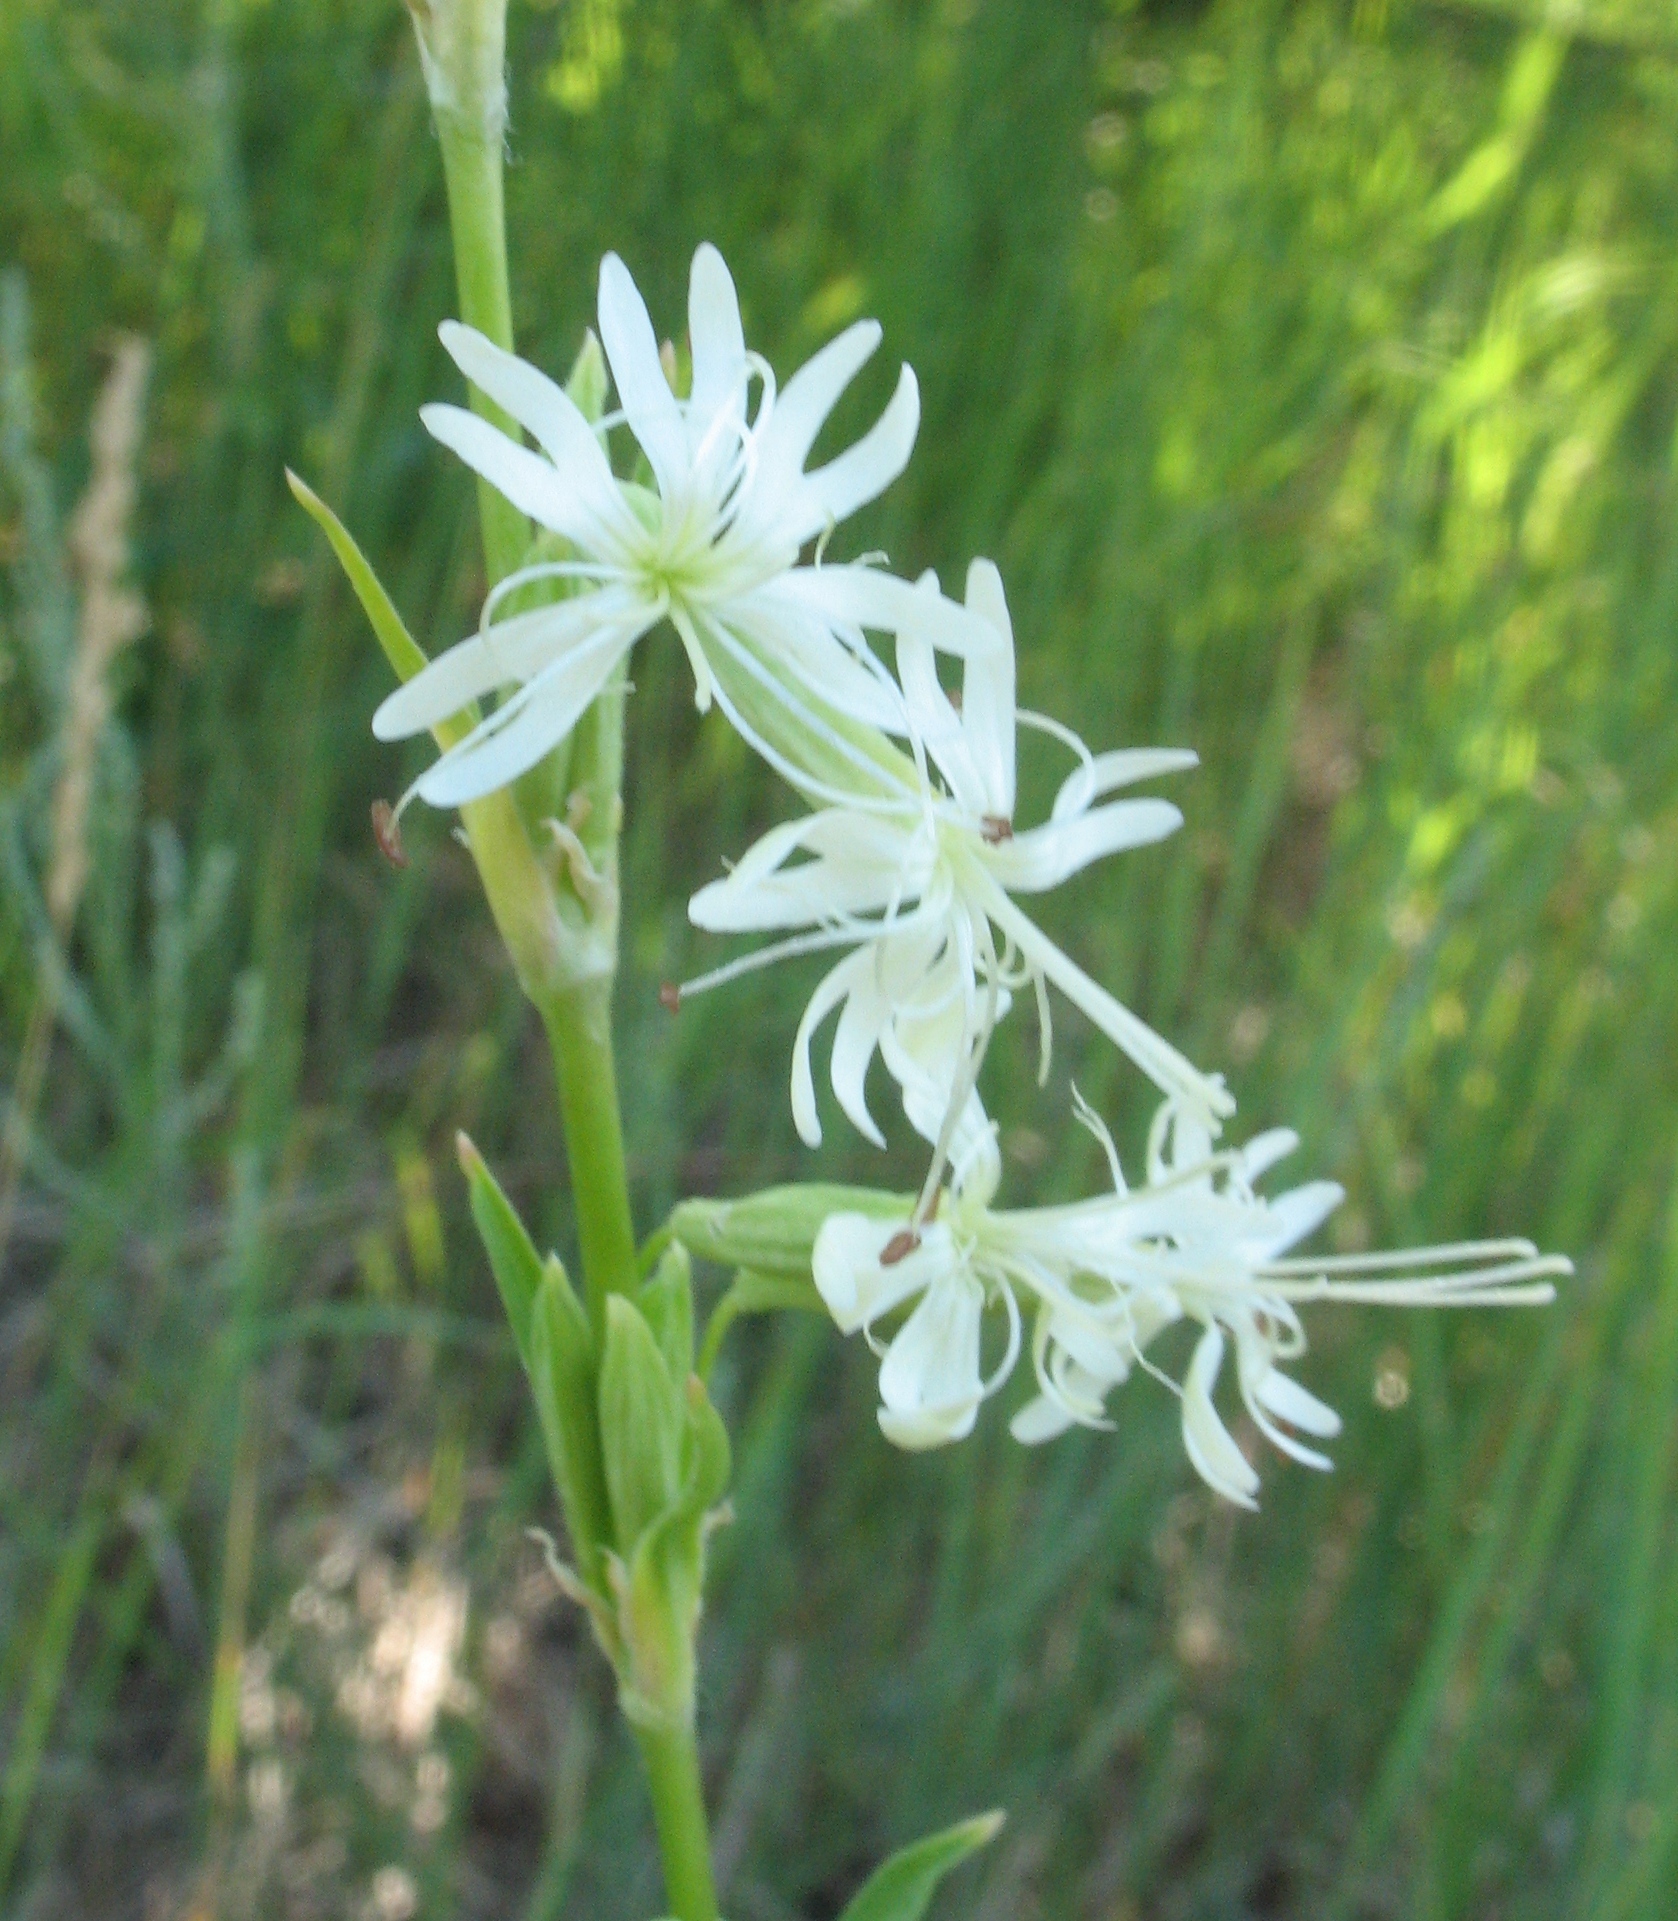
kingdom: Plantae
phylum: Tracheophyta
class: Magnoliopsida
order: Caryophyllales
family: Caryophyllaceae
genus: Silene
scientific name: Silene tatarica
